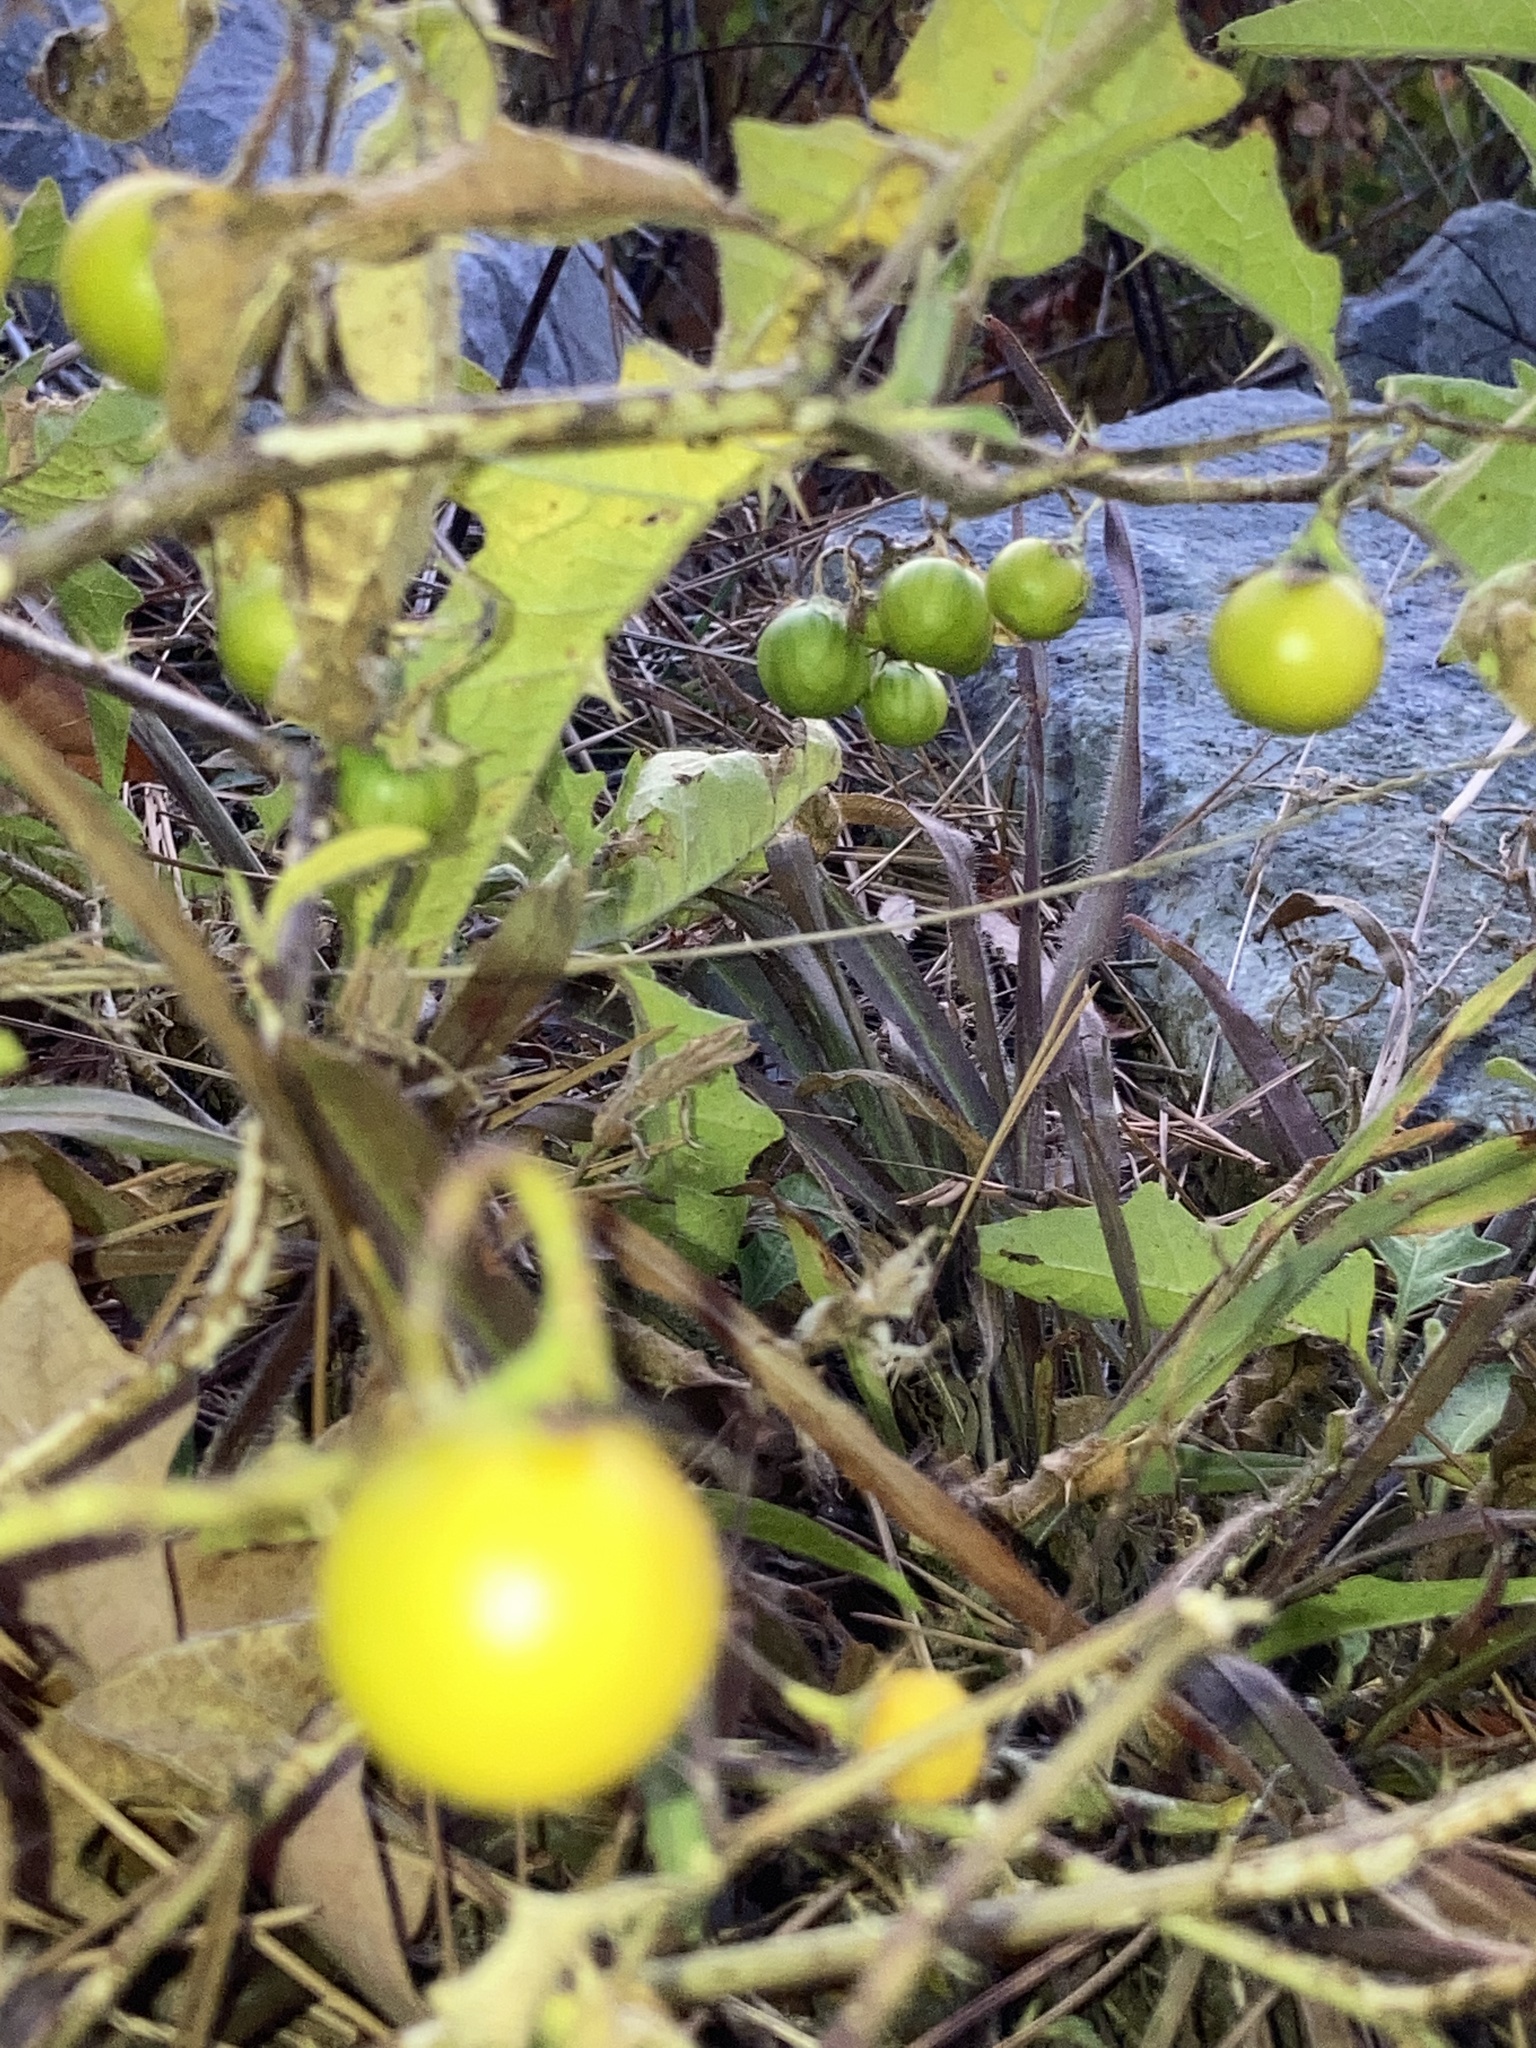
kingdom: Plantae
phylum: Tracheophyta
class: Magnoliopsida
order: Solanales
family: Solanaceae
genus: Solanum
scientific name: Solanum carolinense
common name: Horse-nettle
